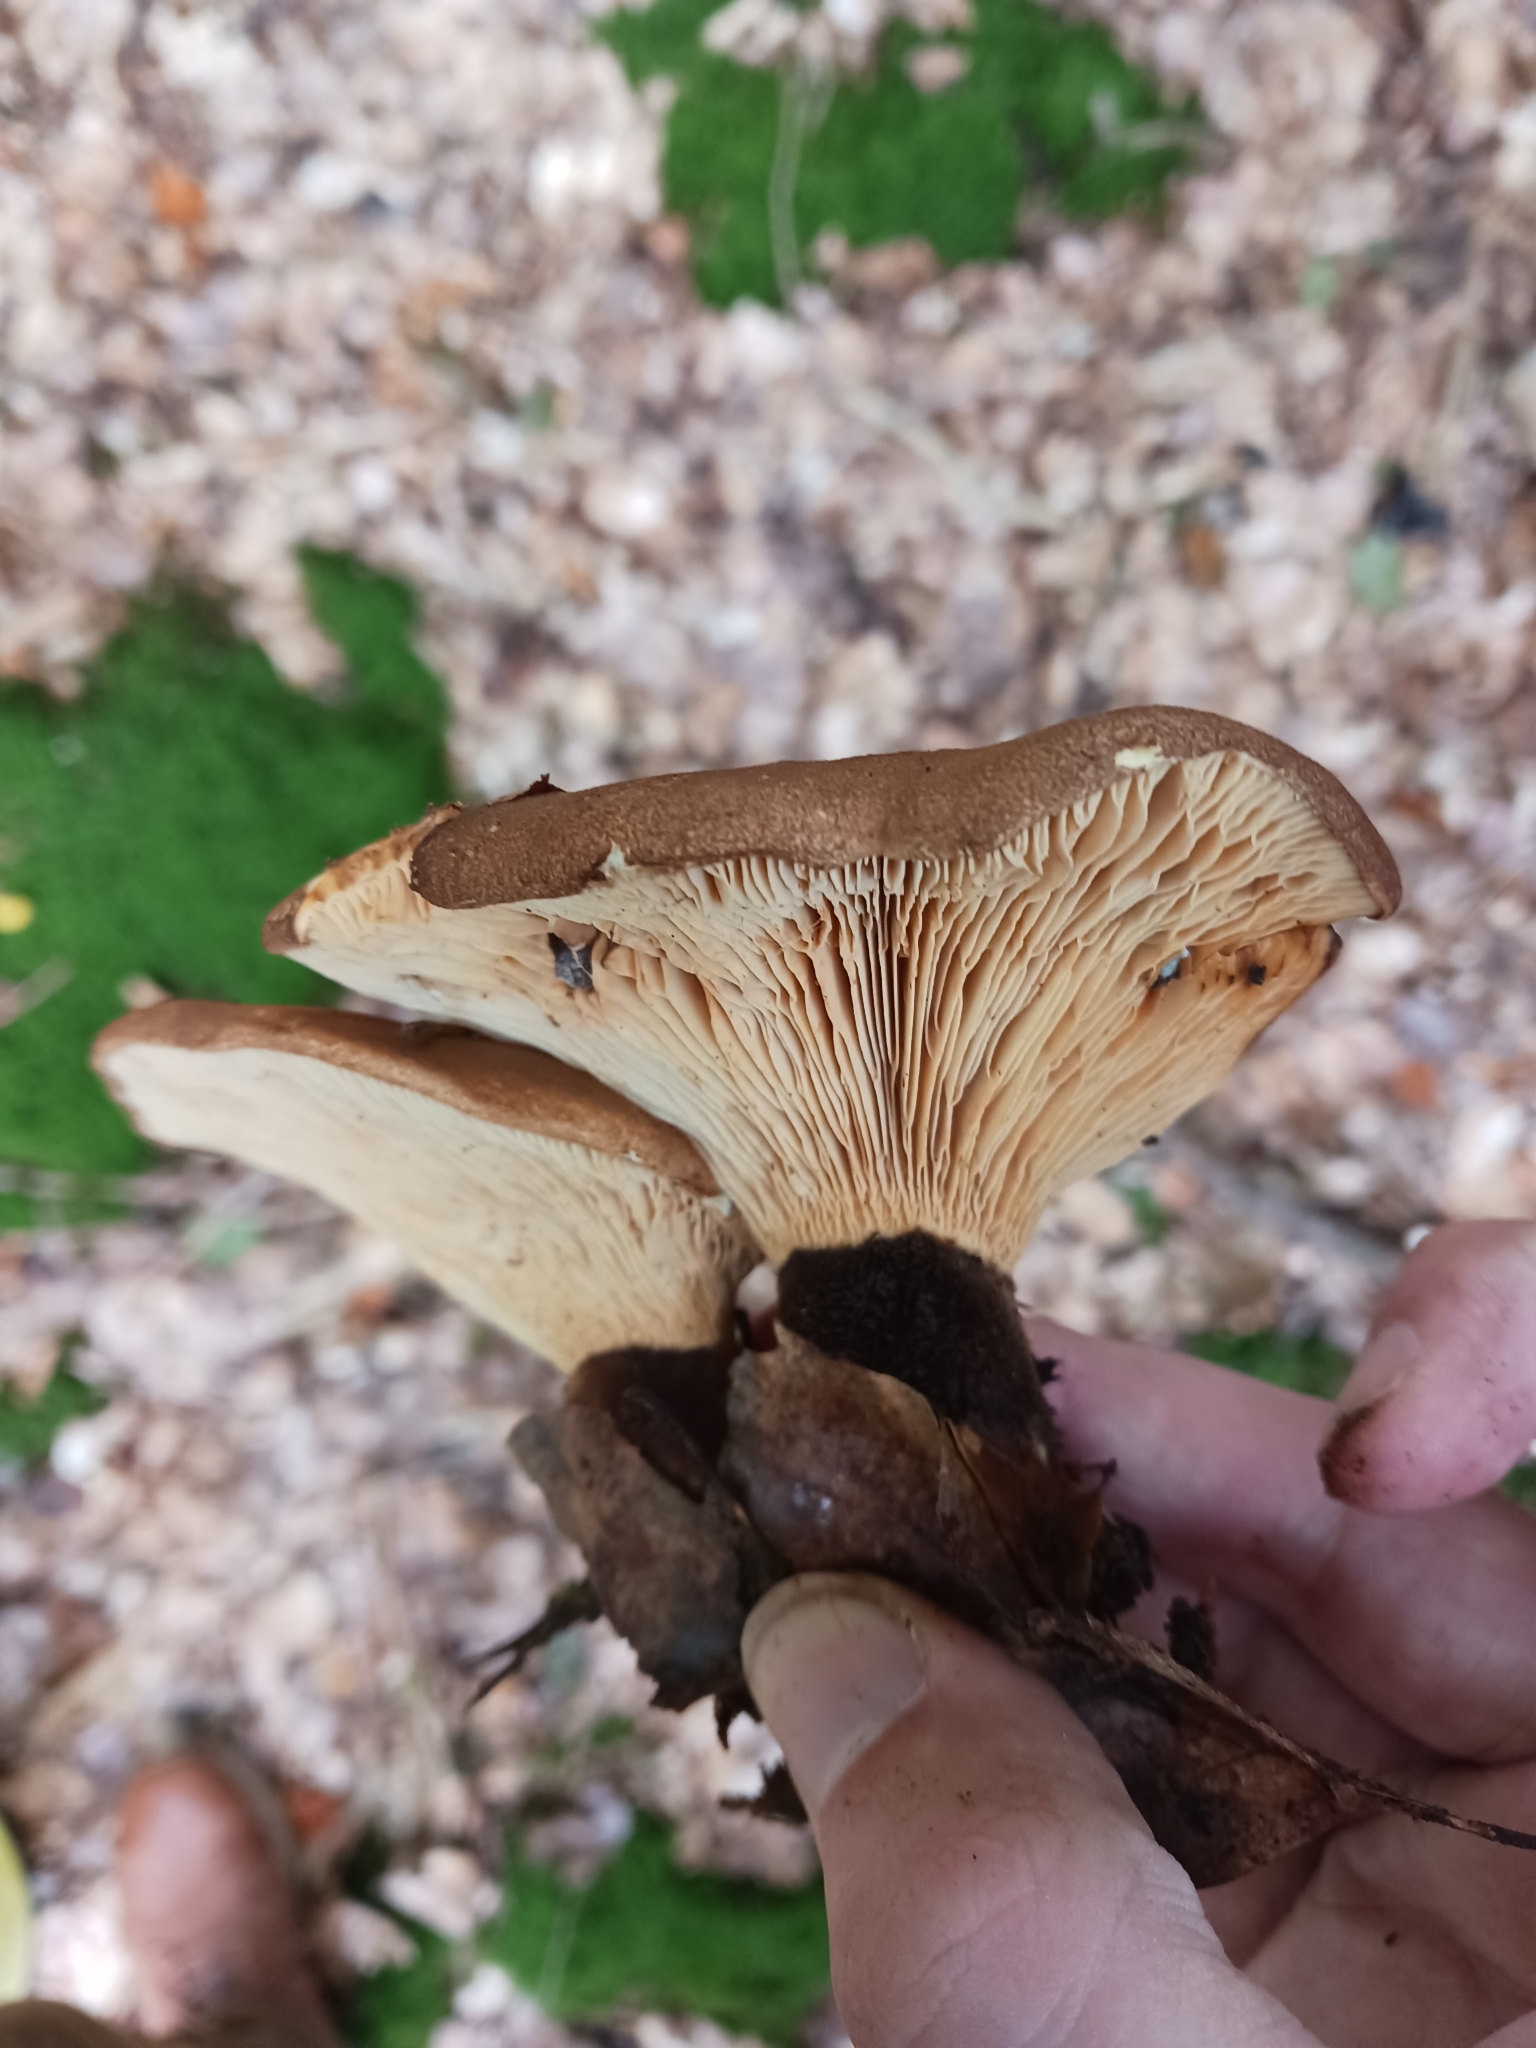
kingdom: Fungi
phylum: Basidiomycota
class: Agaricomycetes
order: Boletales
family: Tapinellaceae
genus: Tapinella
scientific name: Tapinella atrotomentosa
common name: Velvet rollrim
